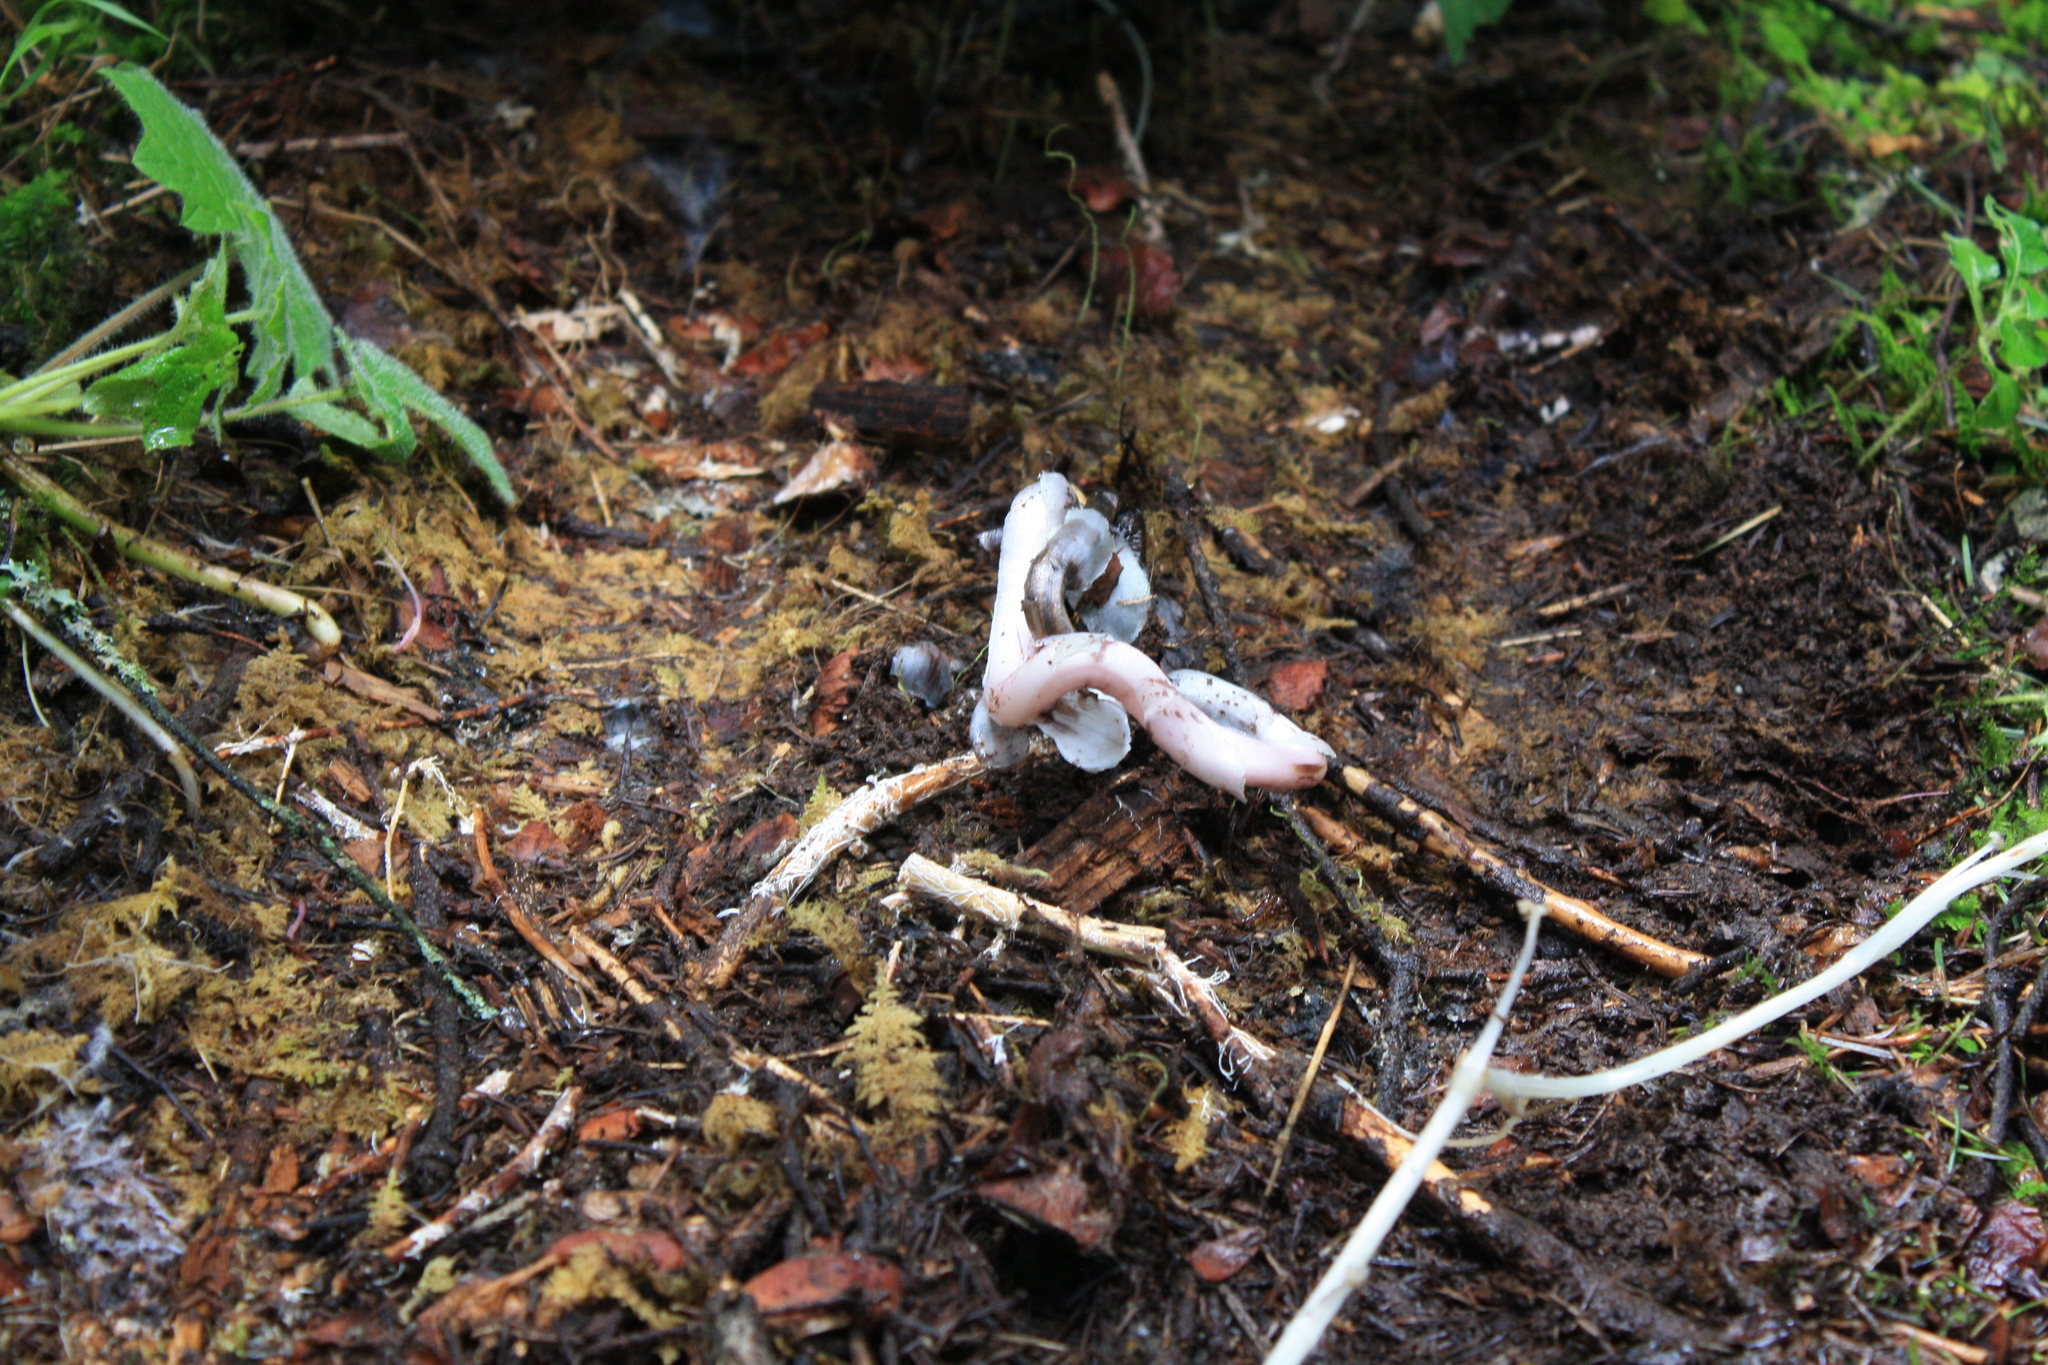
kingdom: Plantae
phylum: Tracheophyta
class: Magnoliopsida
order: Ericales
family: Ericaceae
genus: Monotropa
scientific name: Monotropa uniflora
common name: Convulsion root
